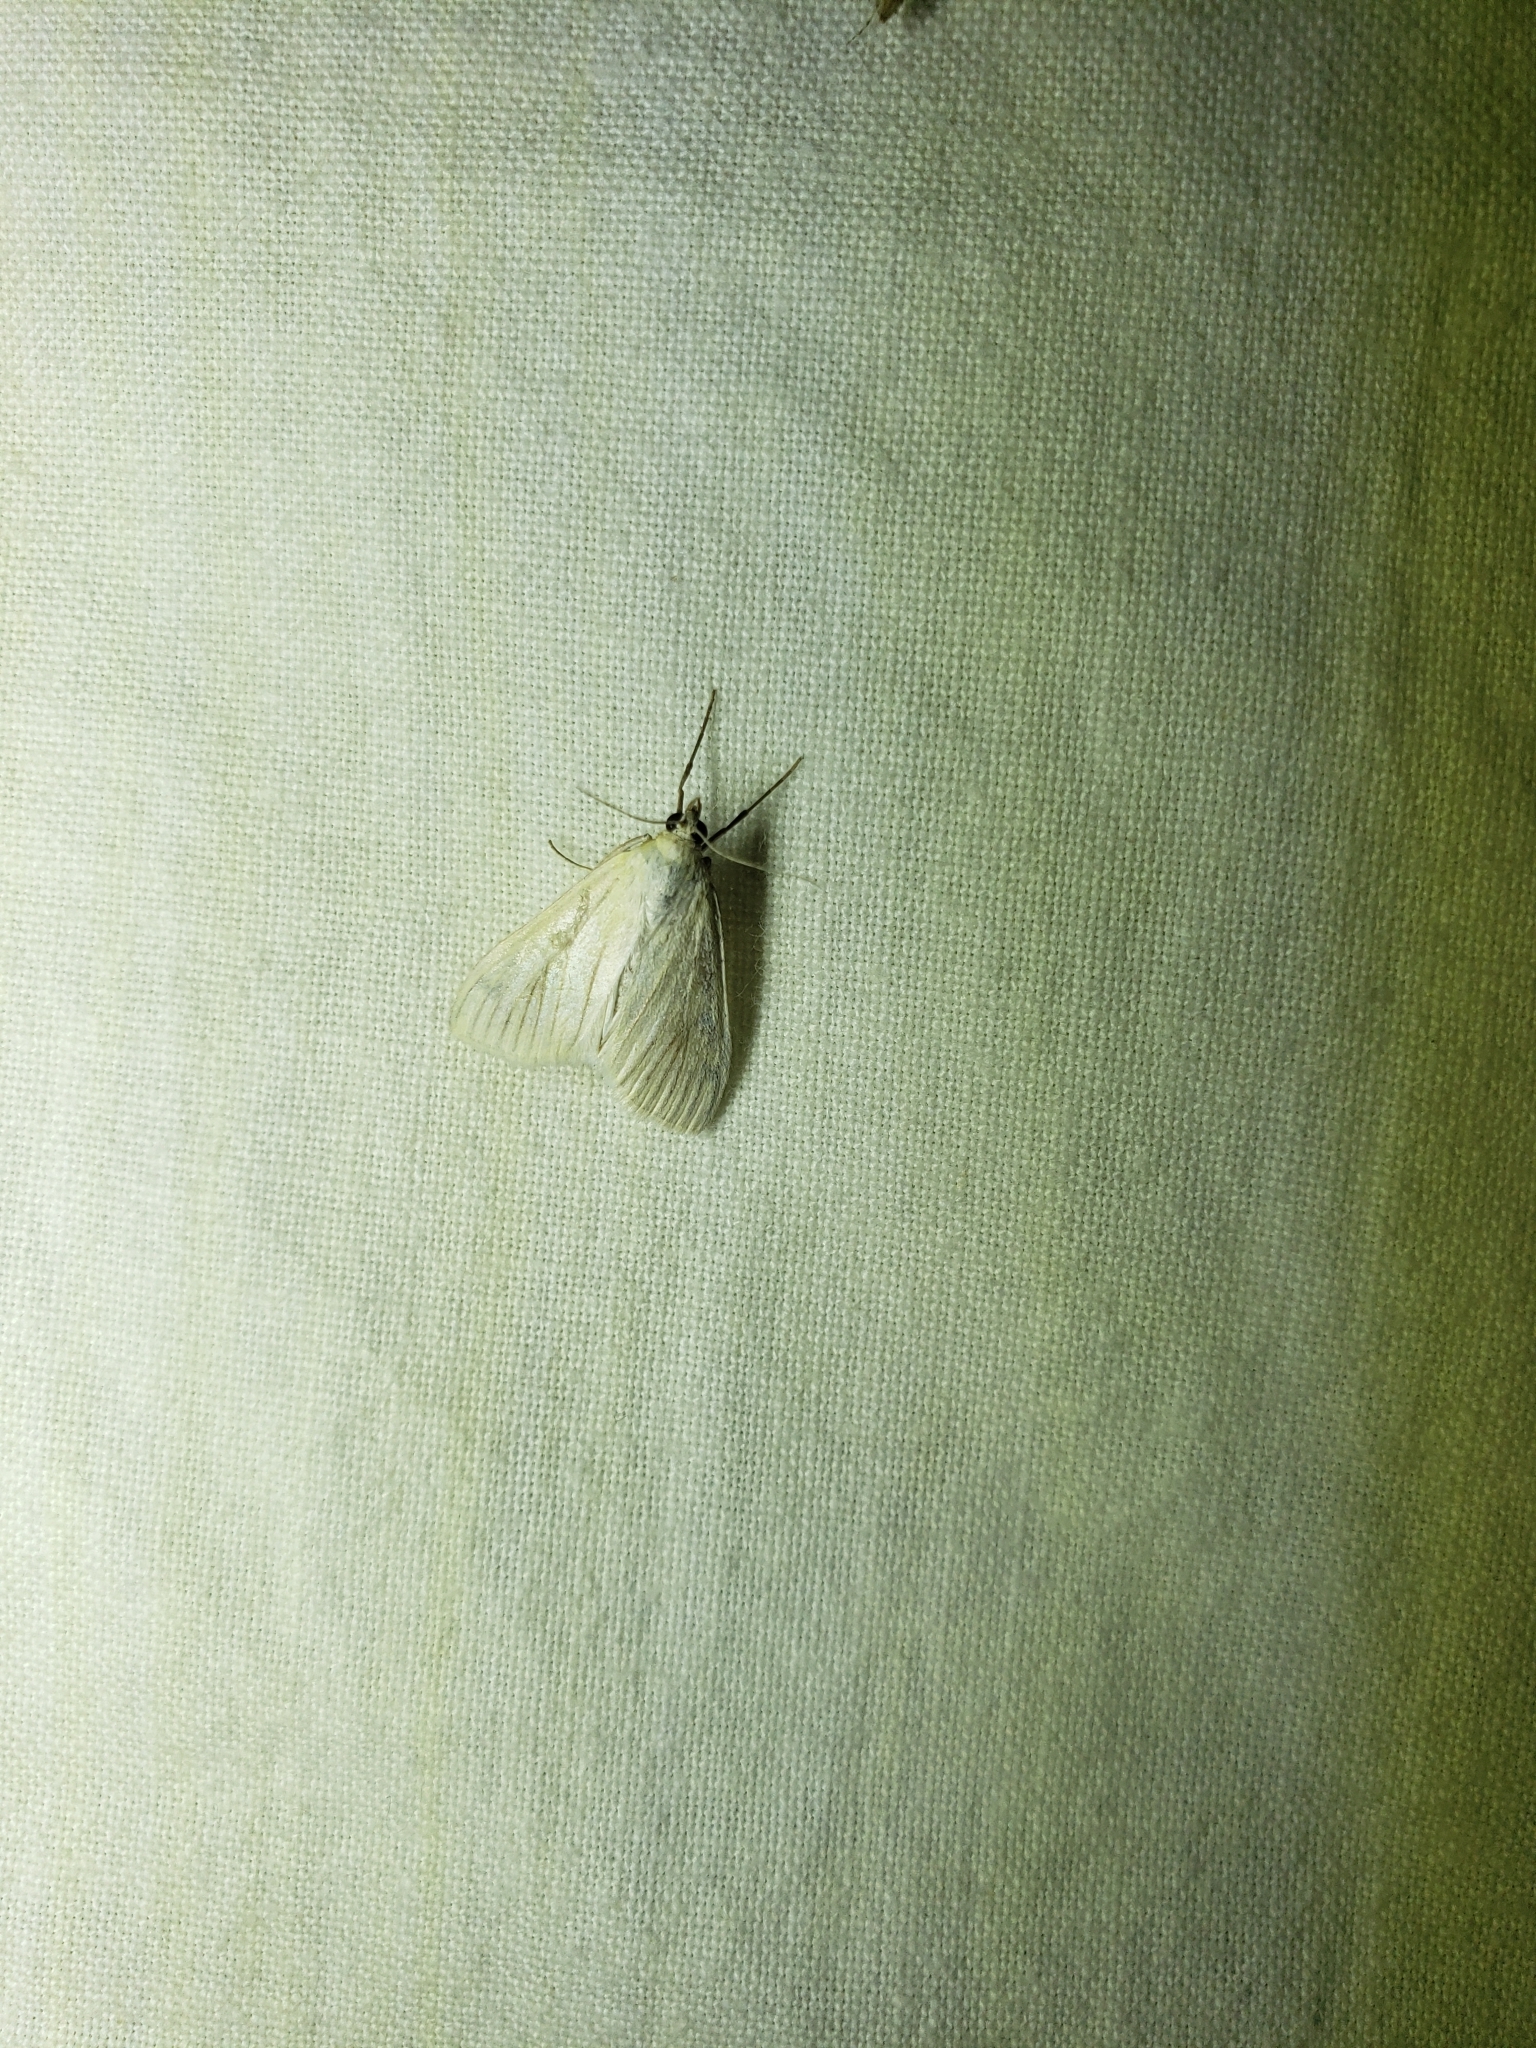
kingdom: Animalia
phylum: Arthropoda
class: Insecta
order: Lepidoptera
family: Crambidae
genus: Sitochroa
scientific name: Sitochroa palealis
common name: Greenish-yellow sitochroa moth
